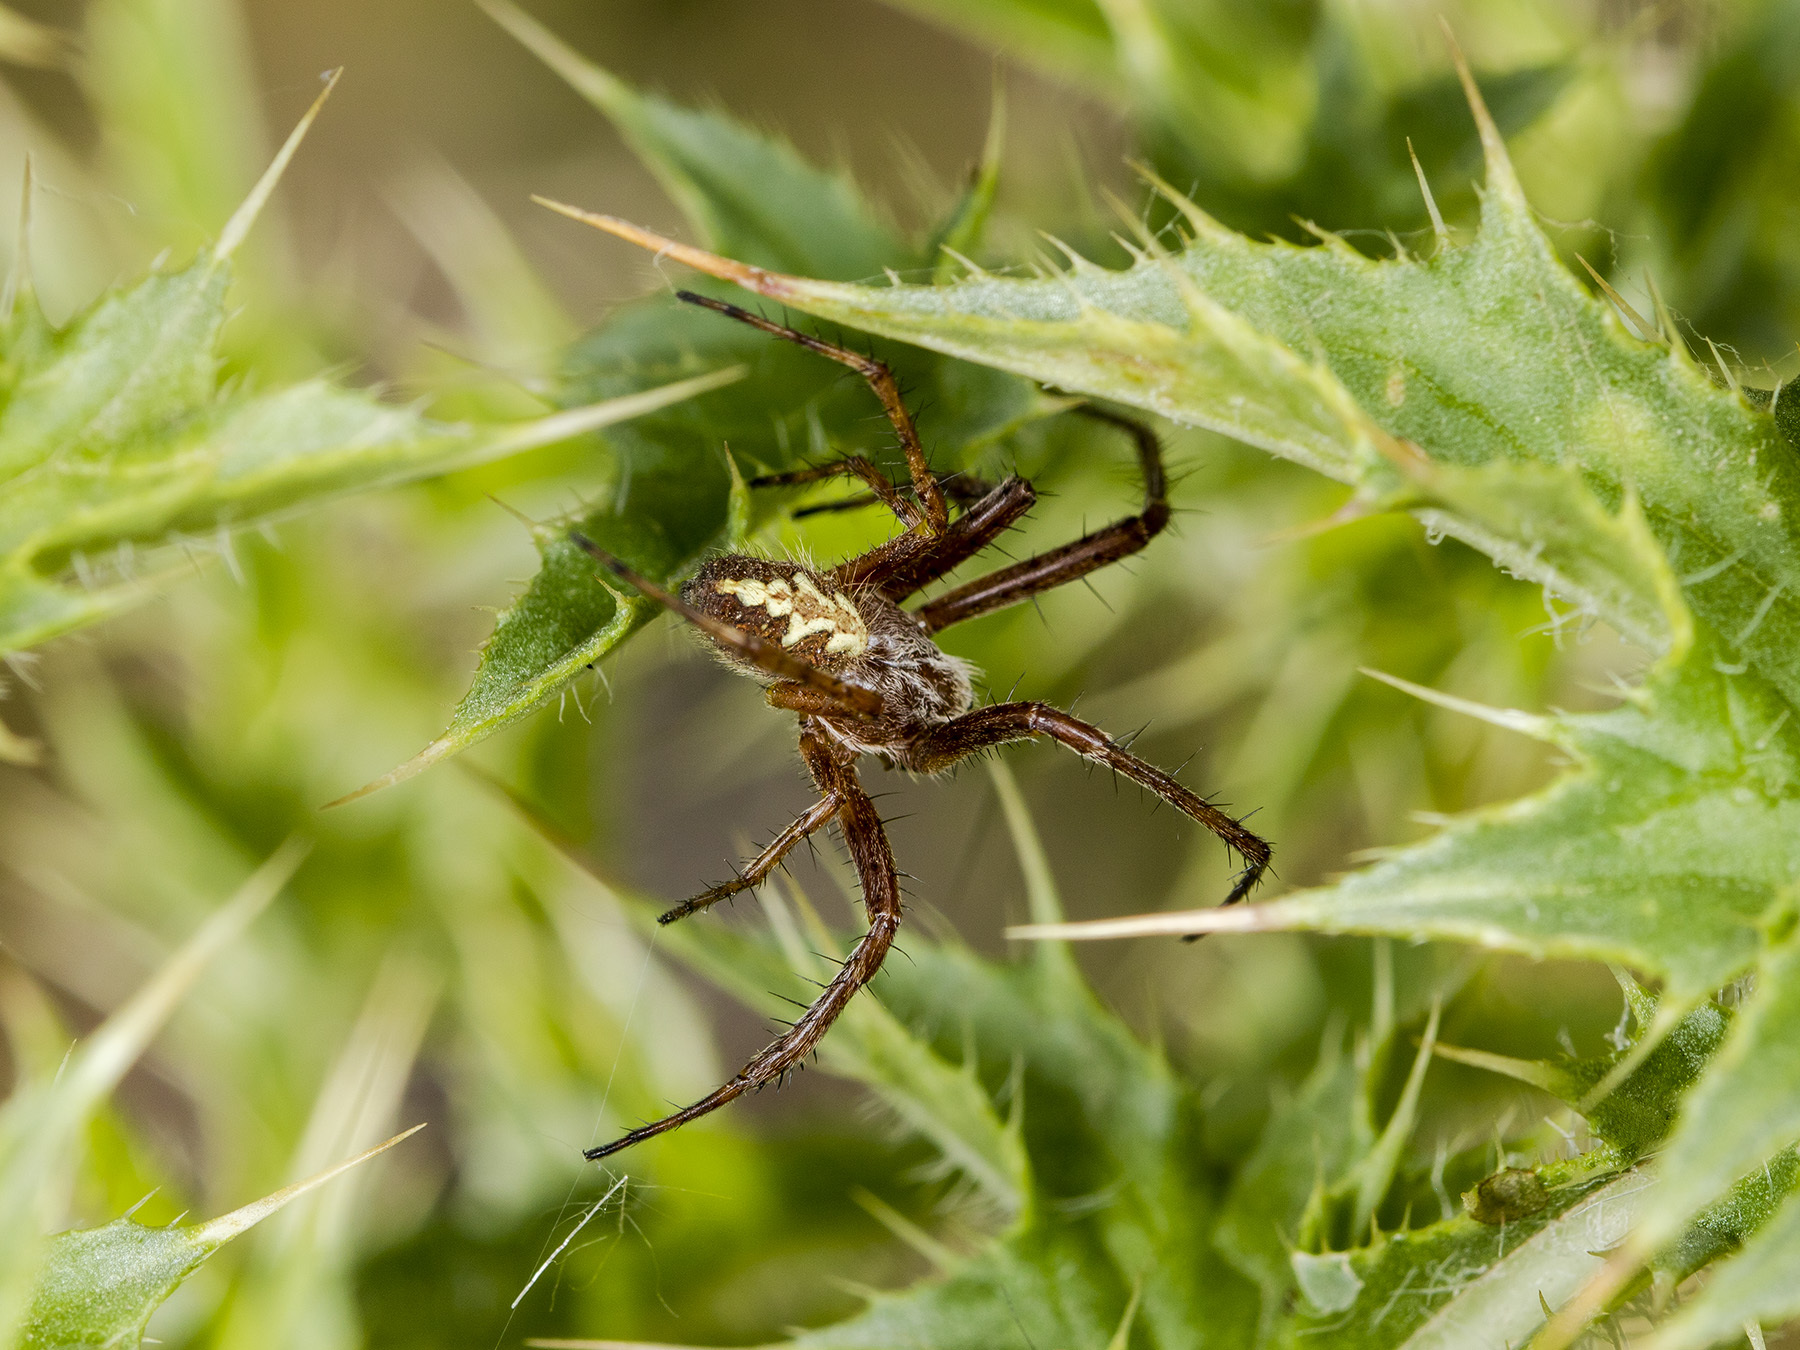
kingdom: Animalia
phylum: Arthropoda
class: Arachnida
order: Araneae
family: Araneidae
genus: Aculepeira
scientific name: Aculepeira packardi
